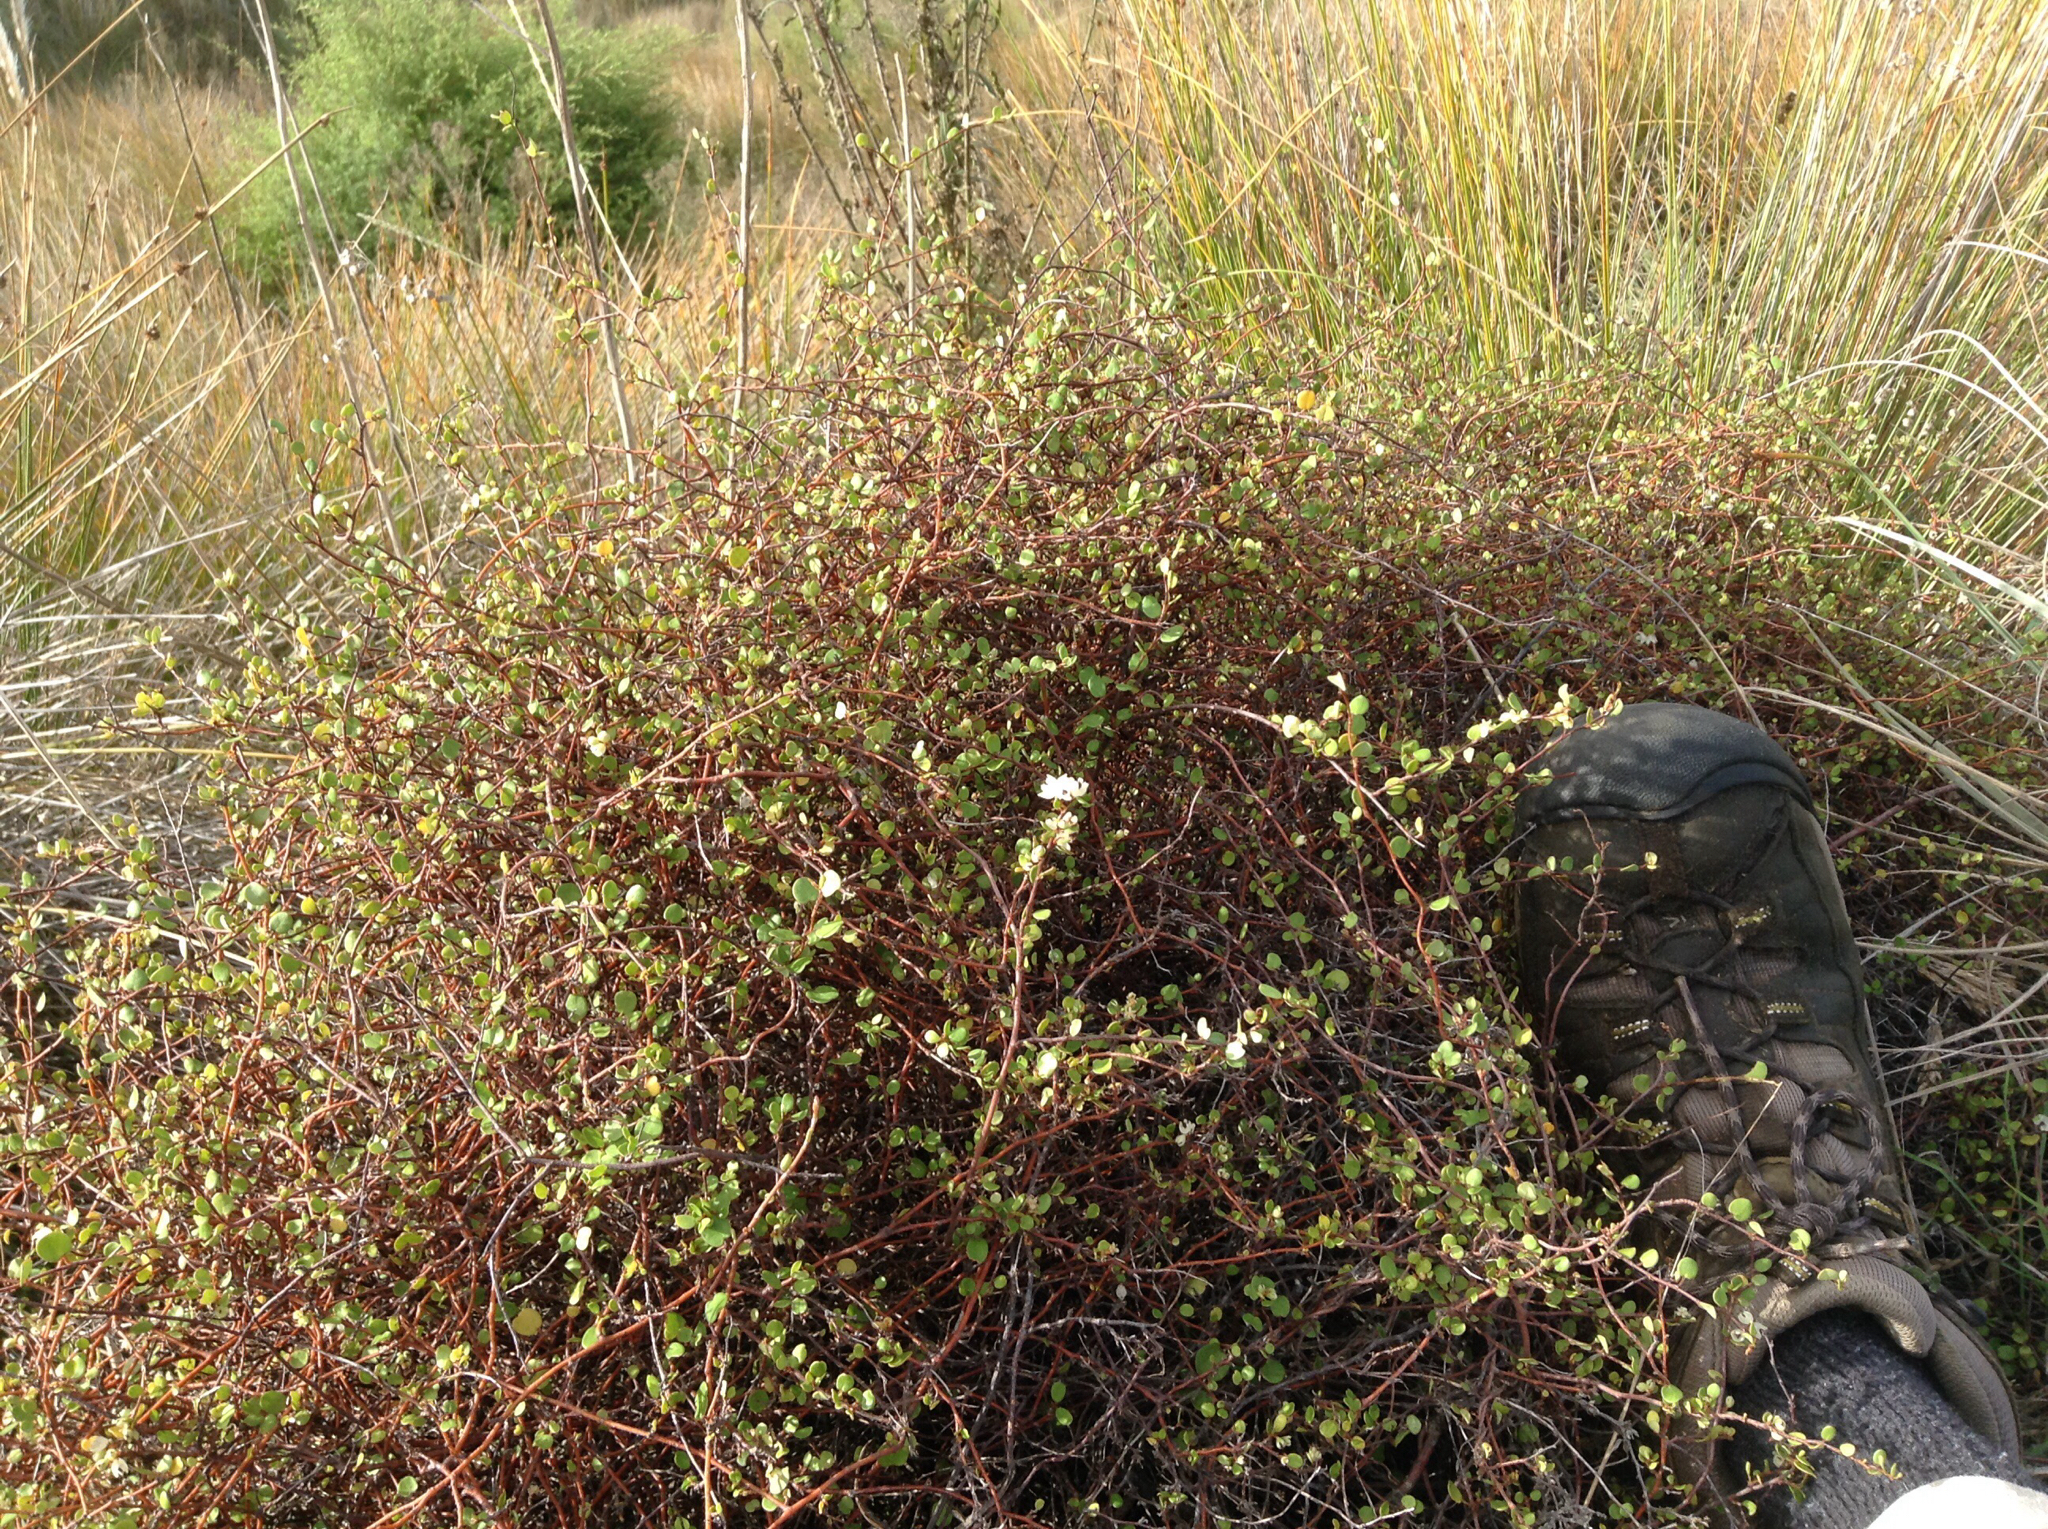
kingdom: Plantae
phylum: Tracheophyta
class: Magnoliopsida
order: Caryophyllales
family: Polygonaceae
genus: Muehlenbeckia
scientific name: Muehlenbeckia complexa
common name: Wireplant
